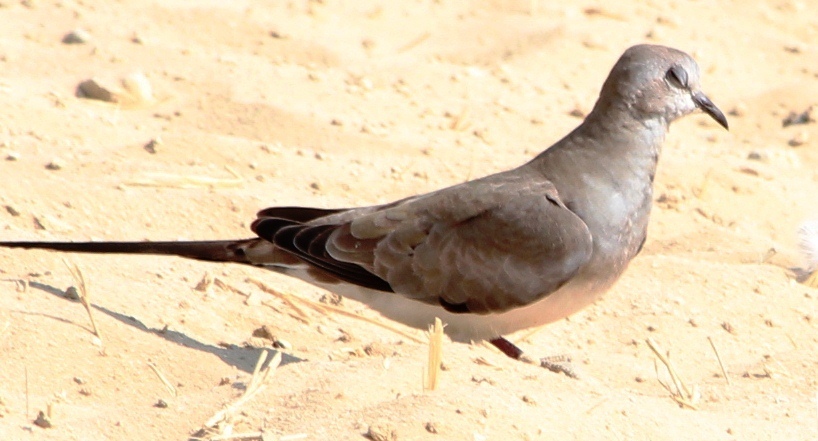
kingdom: Animalia
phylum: Chordata
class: Aves
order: Columbiformes
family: Columbidae
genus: Oena
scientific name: Oena capensis
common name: Namaqua dove
